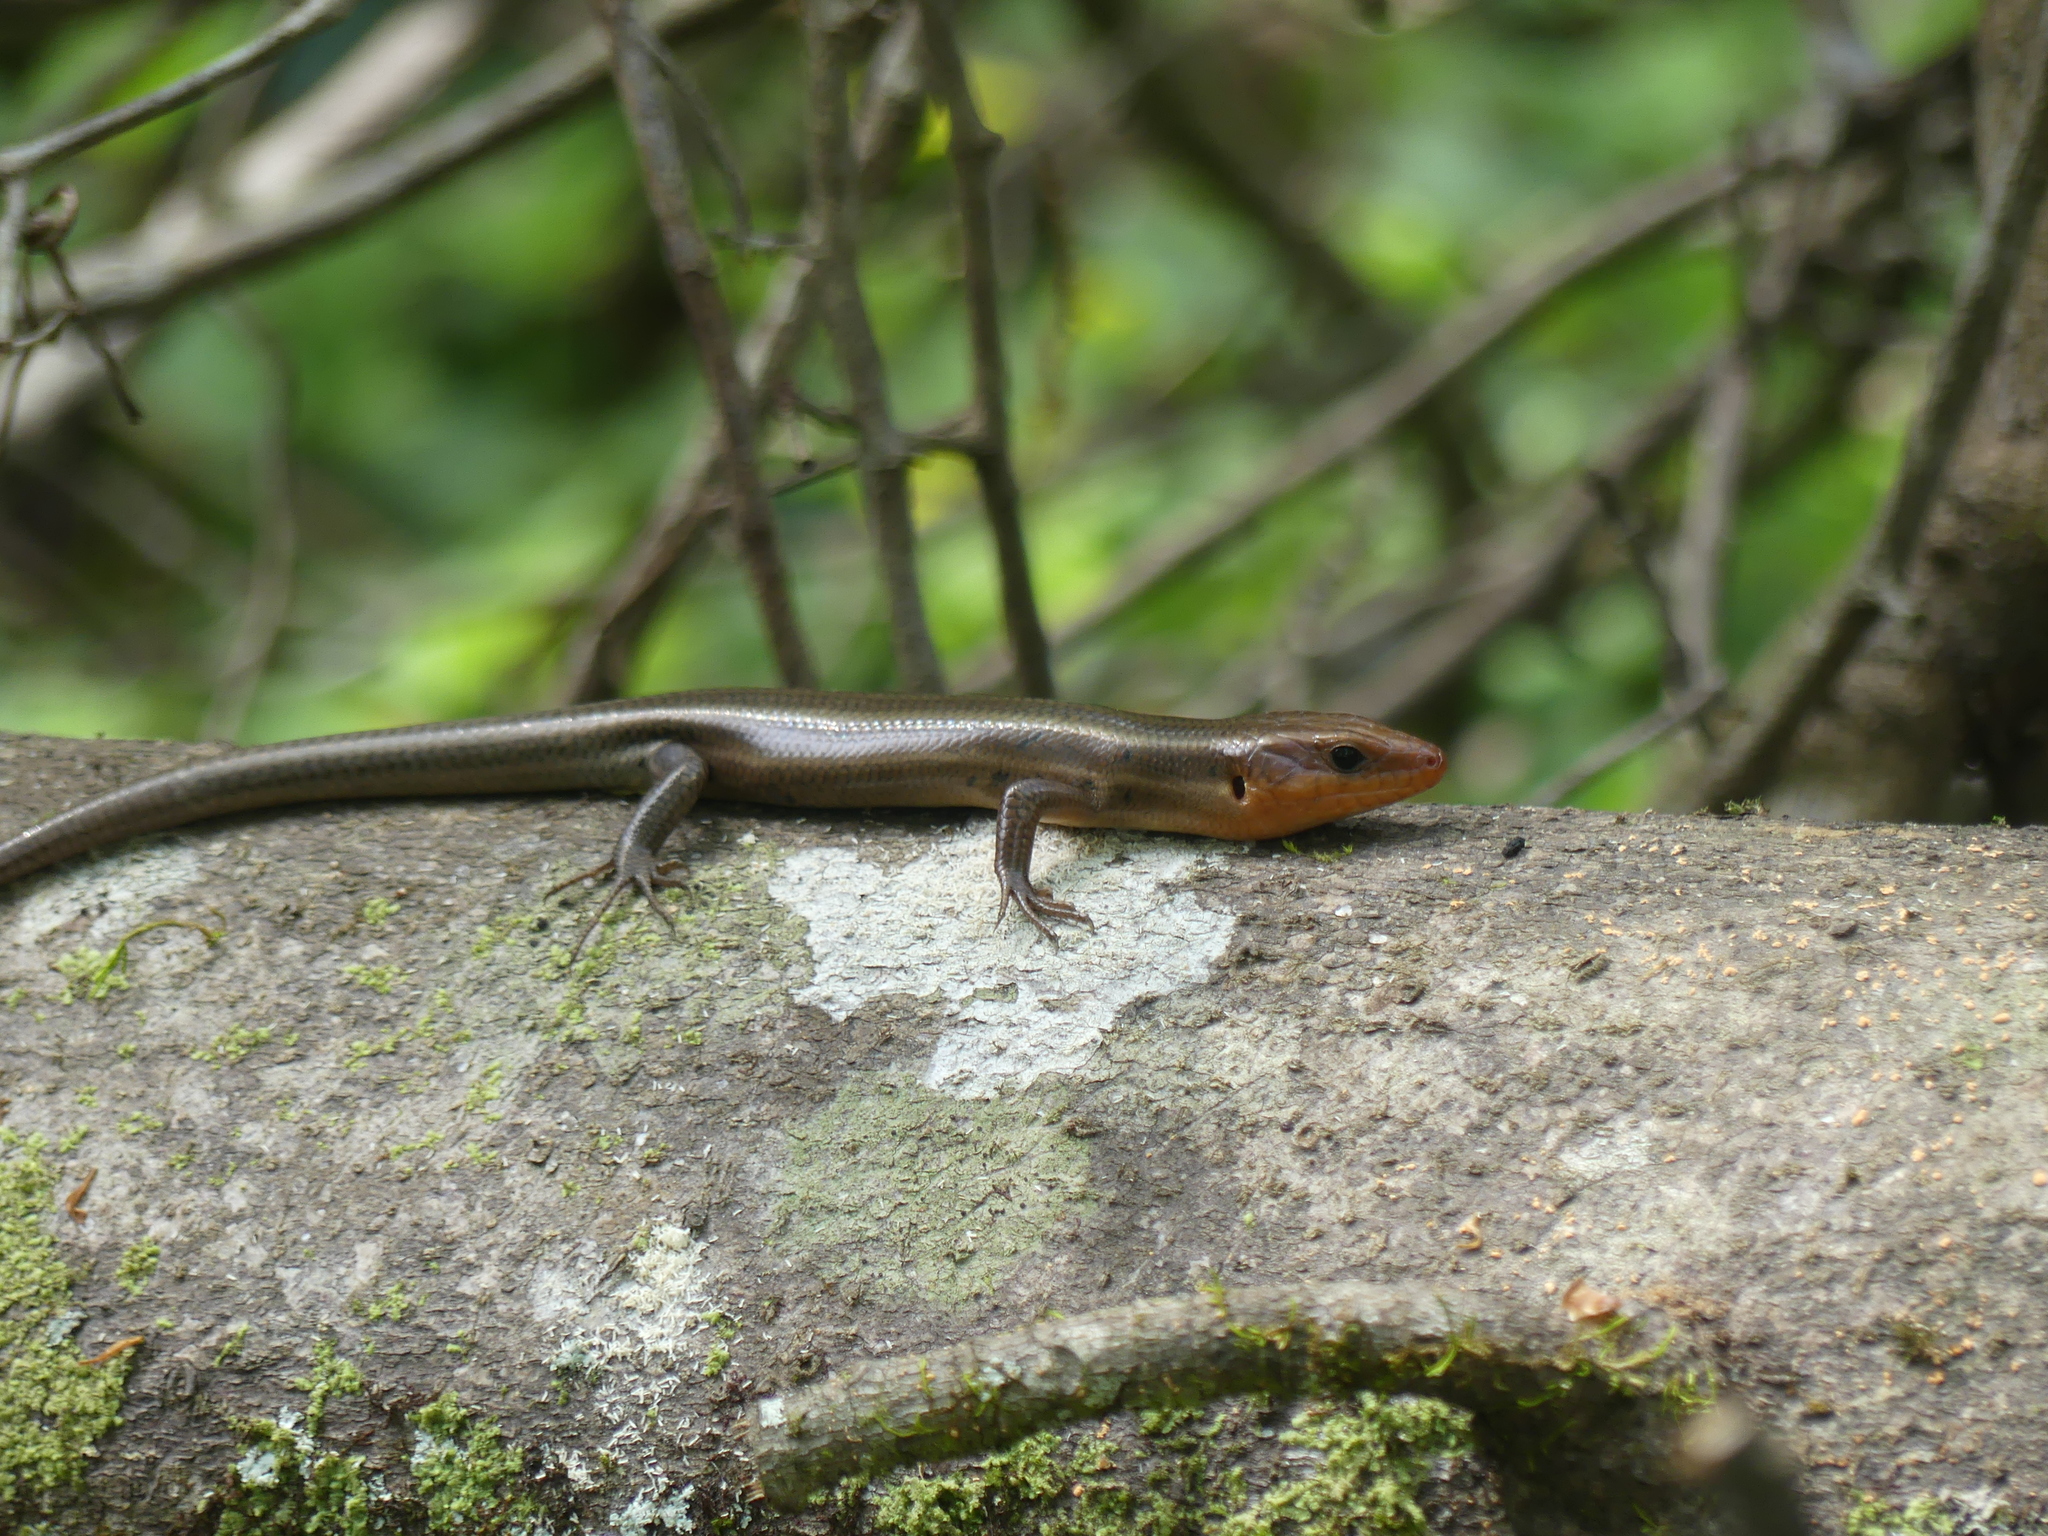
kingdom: Animalia
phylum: Chordata
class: Squamata
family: Scincidae
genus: Plestiodon
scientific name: Plestiodon fasciatus
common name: Five-lined skink
